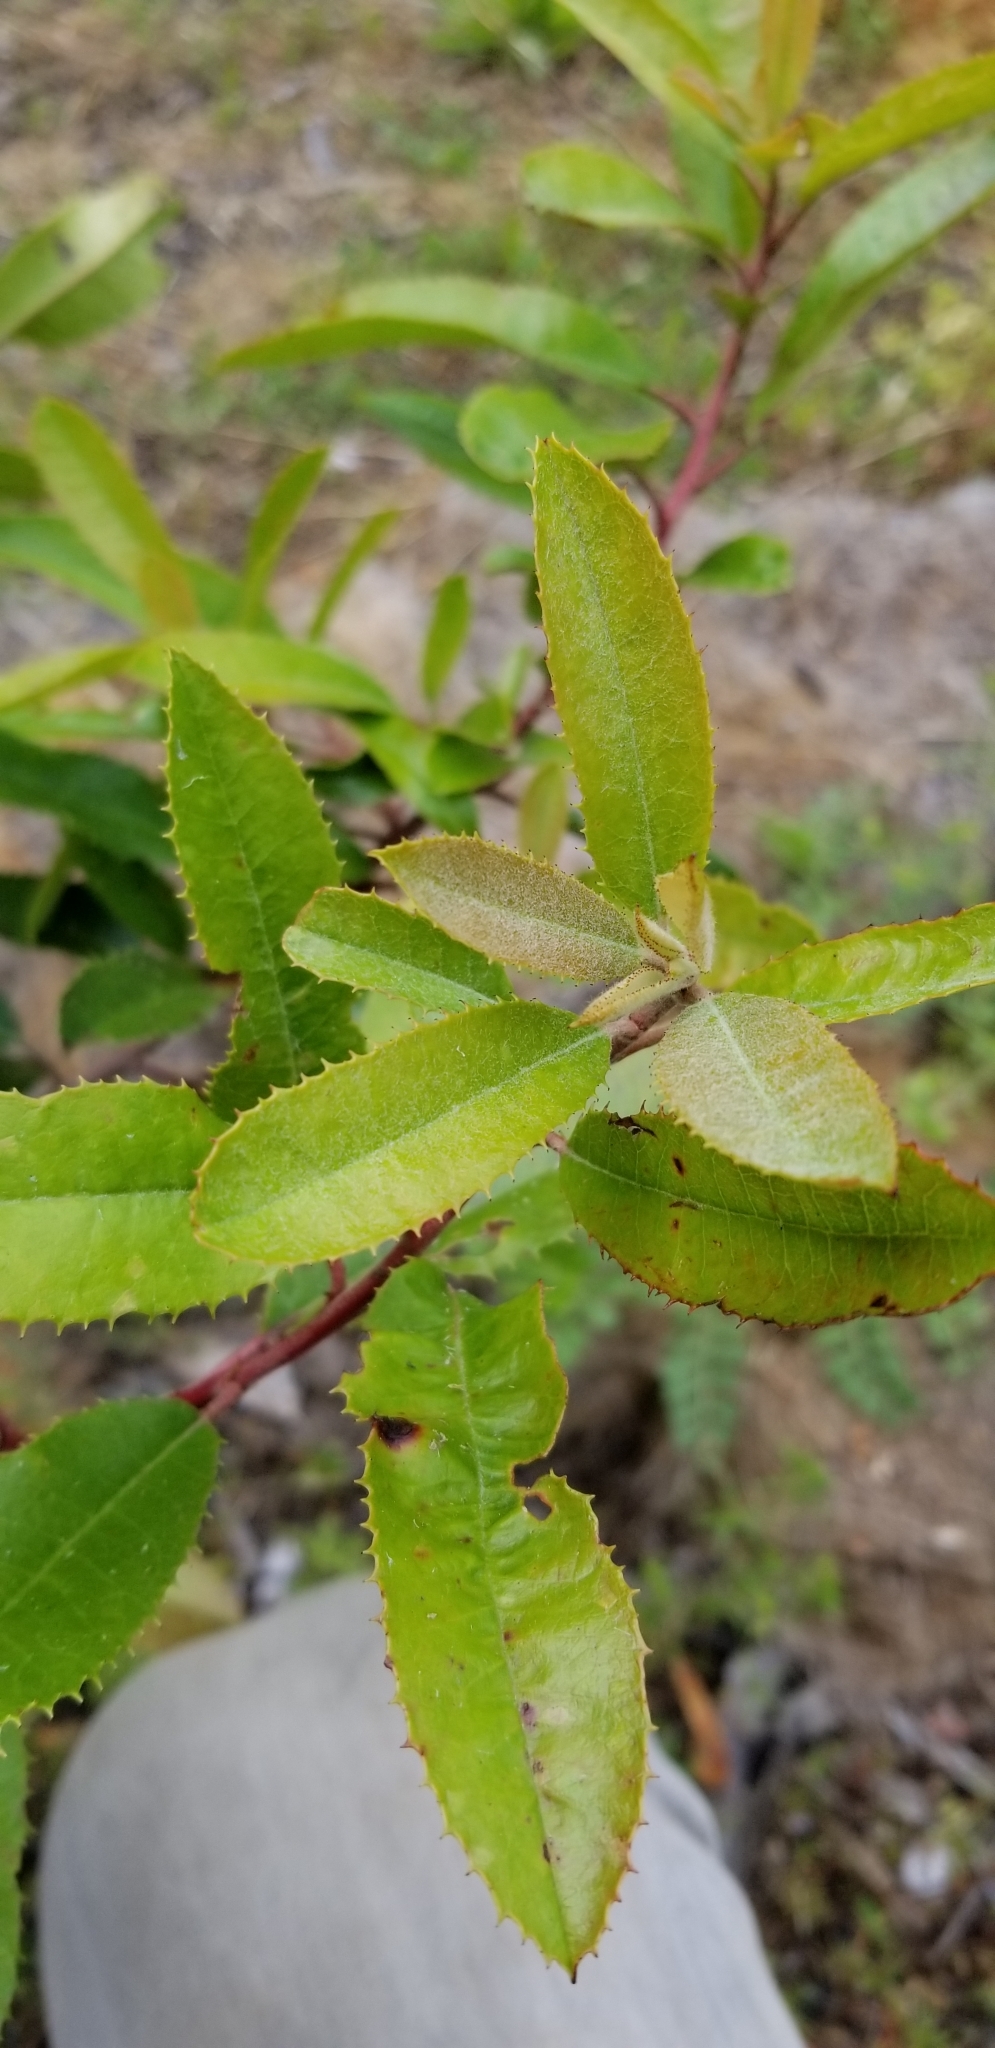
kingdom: Plantae
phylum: Tracheophyta
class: Magnoliopsida
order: Rosales
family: Rosaceae
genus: Heteromeles
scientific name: Heteromeles arbutifolia
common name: California-holly
